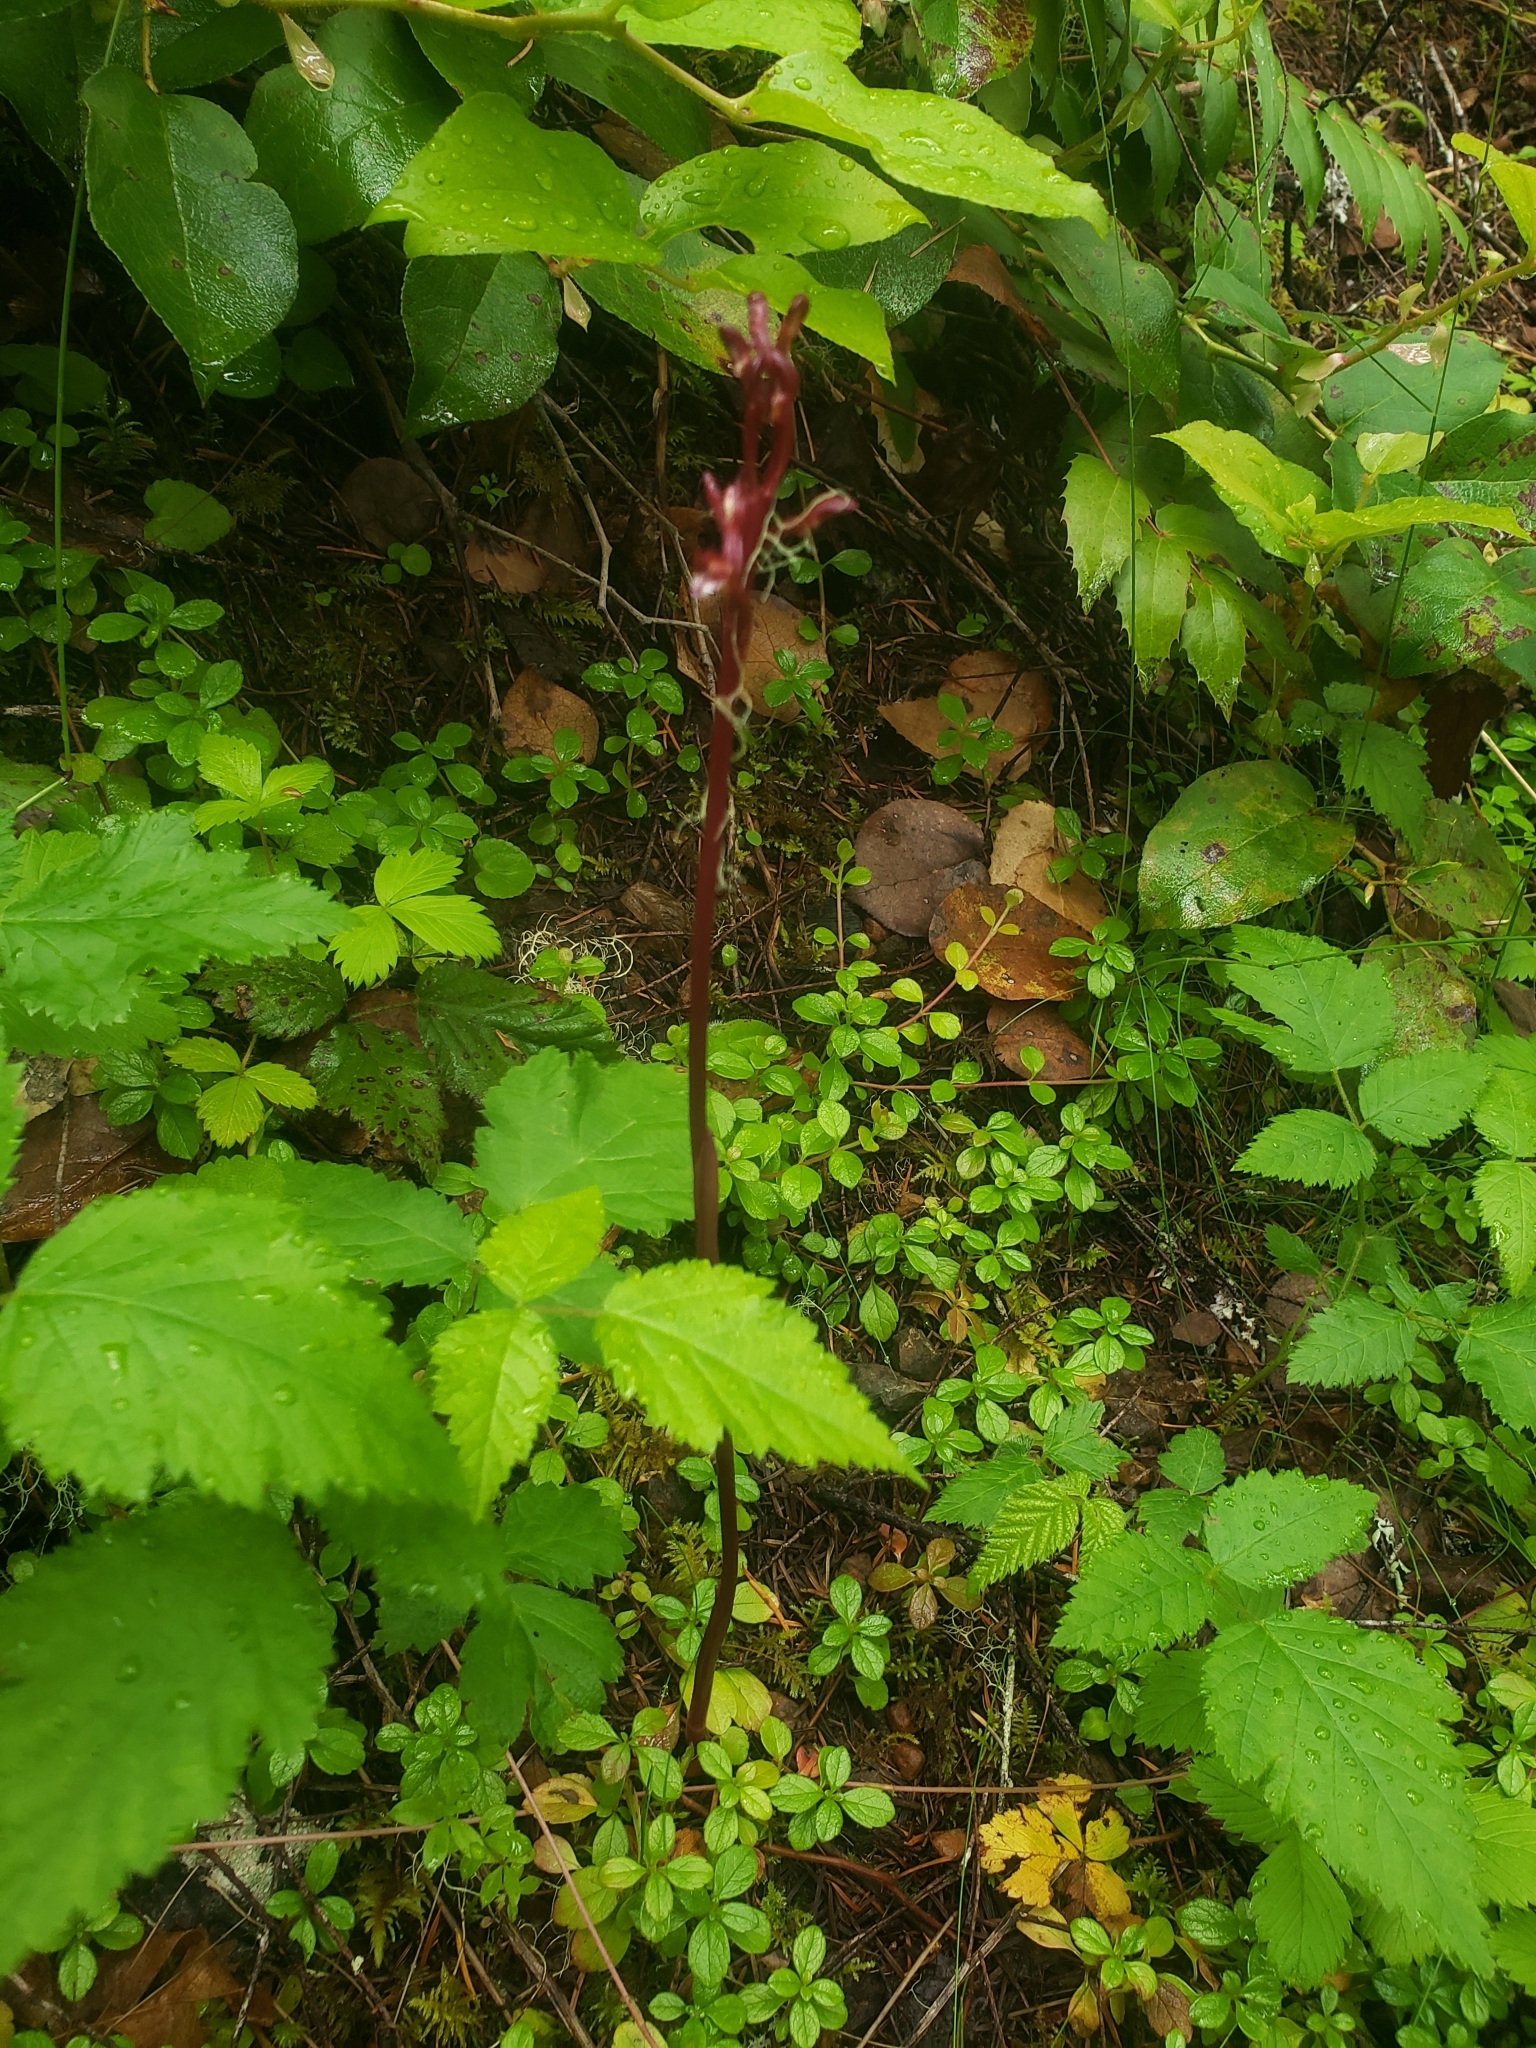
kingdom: Plantae
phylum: Tracheophyta
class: Liliopsida
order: Asparagales
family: Orchidaceae
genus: Corallorhiza
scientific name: Corallorhiza maculata
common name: Spotted coralroot
